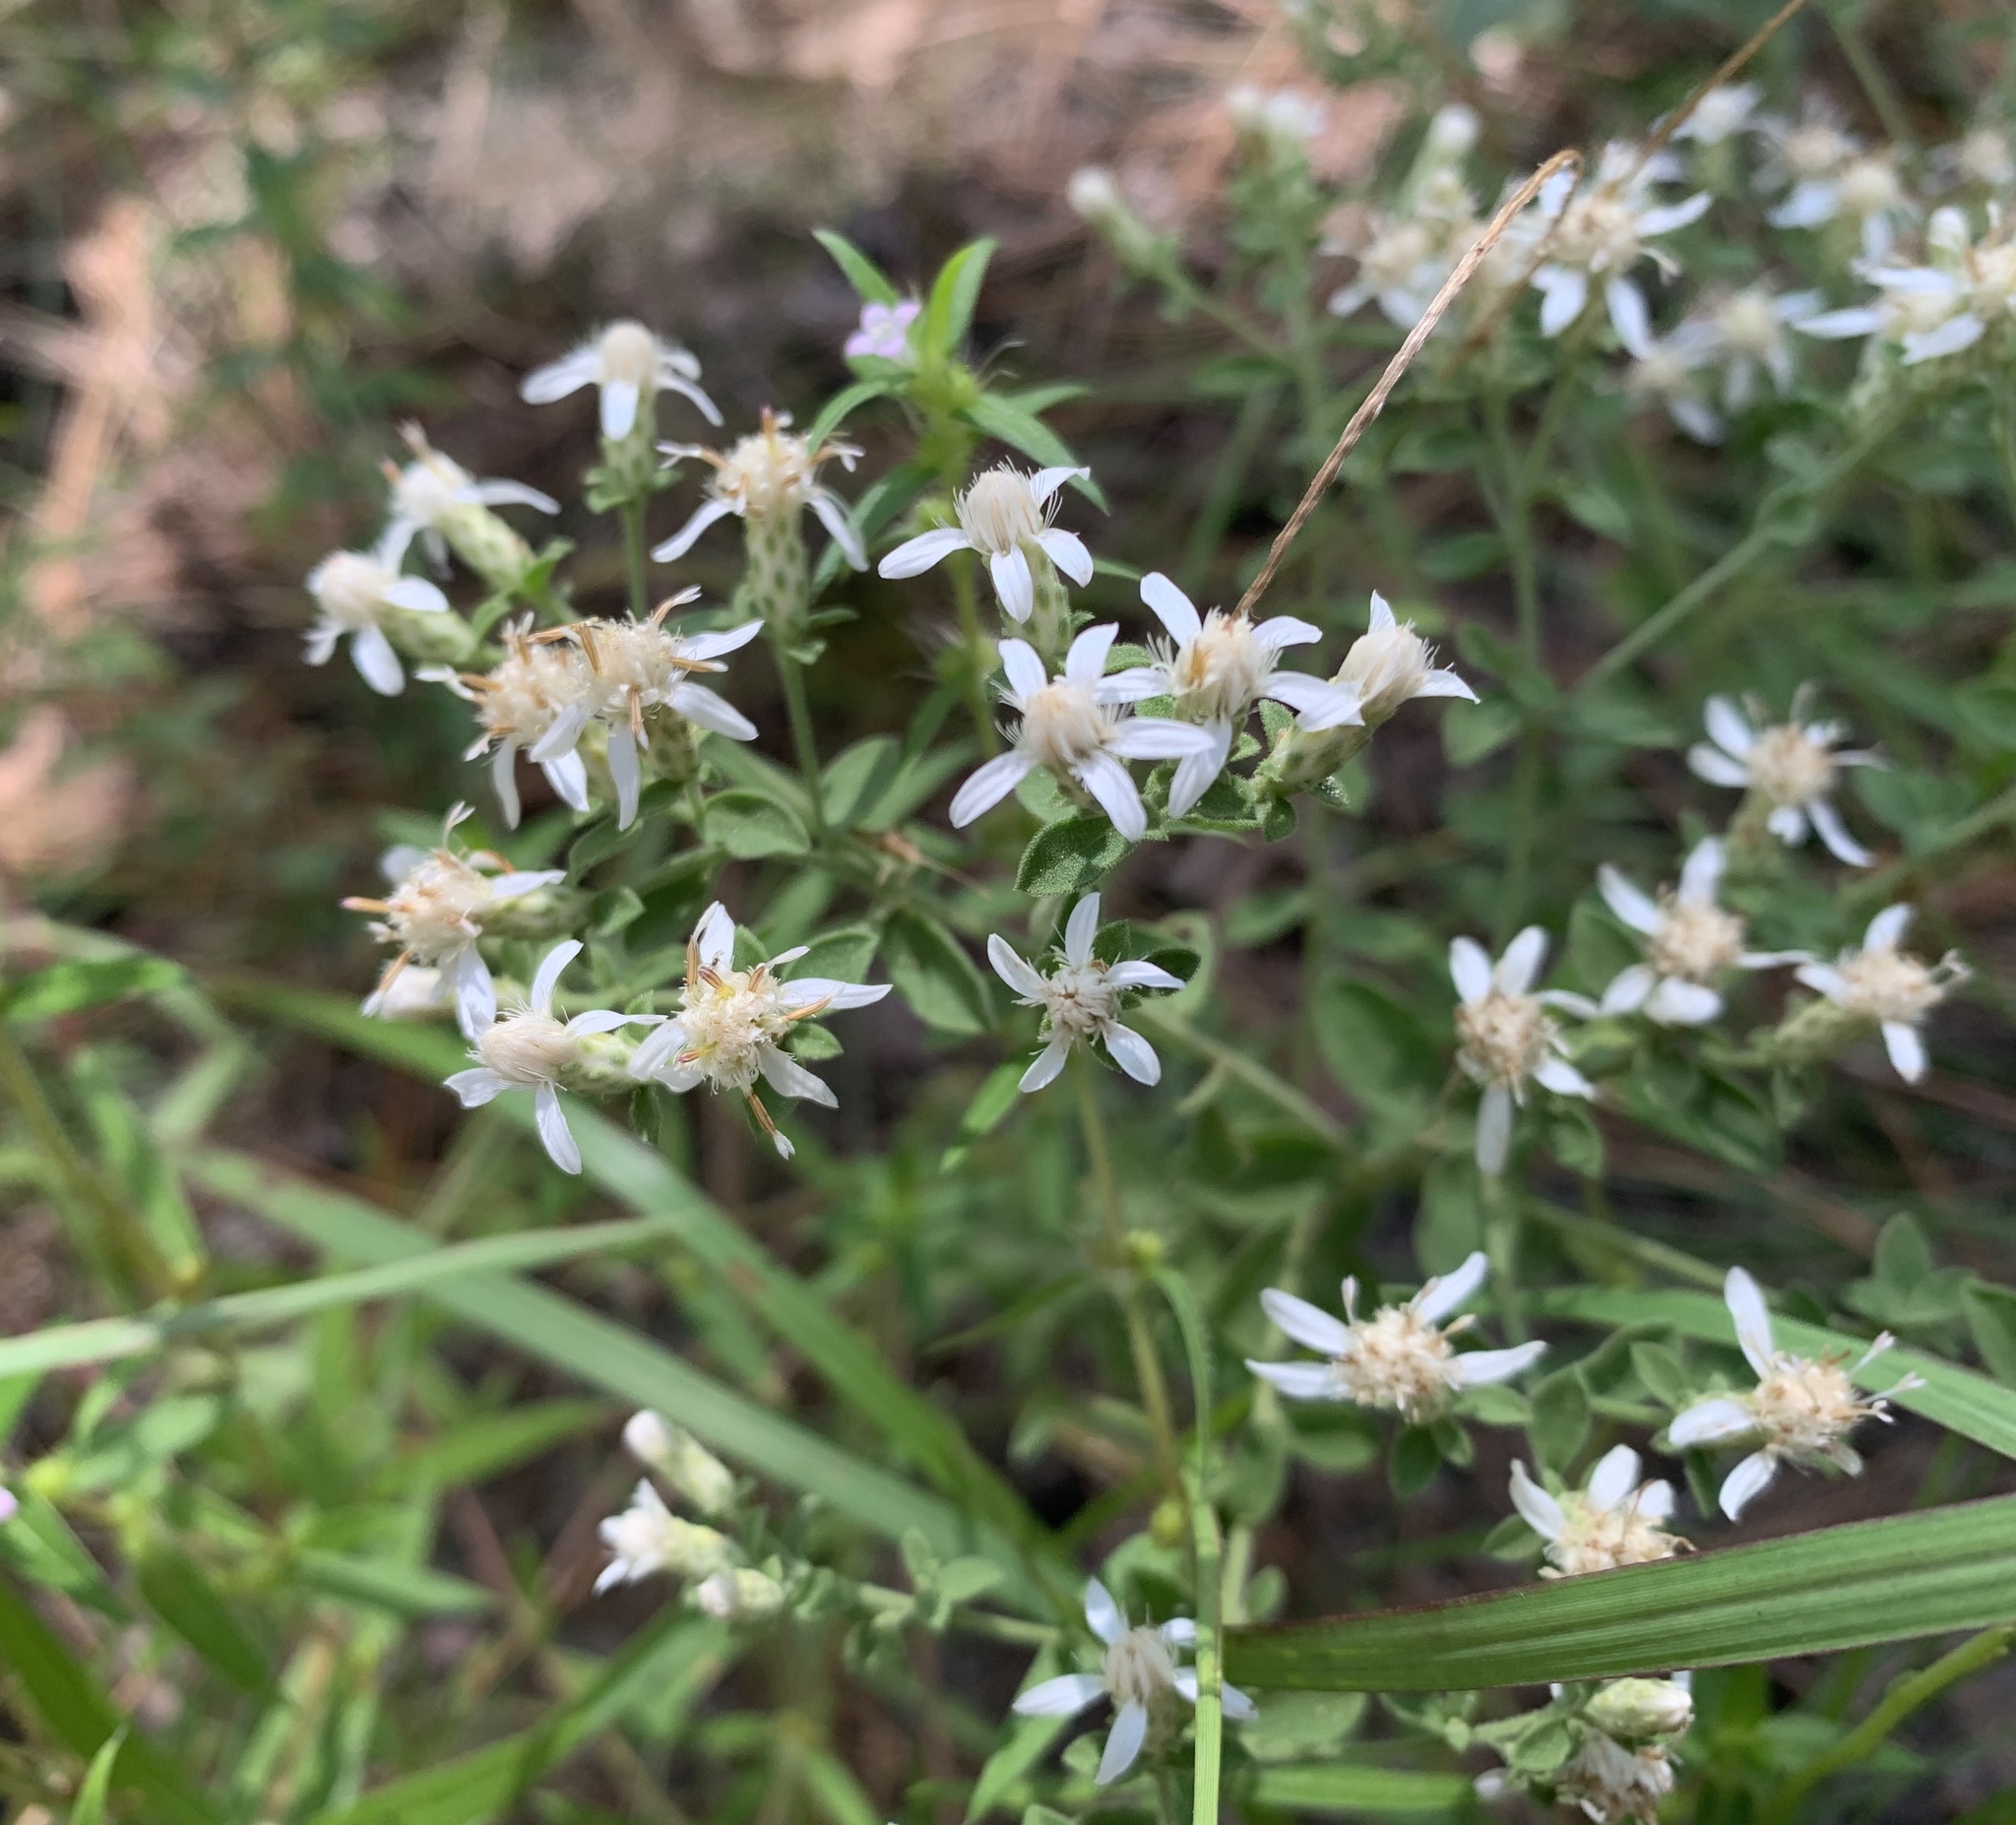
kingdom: Plantae
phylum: Tracheophyta
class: Magnoliopsida
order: Asterales
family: Asteraceae
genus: Sericocarpus
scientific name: Sericocarpus tortifolius
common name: Dixie aster
